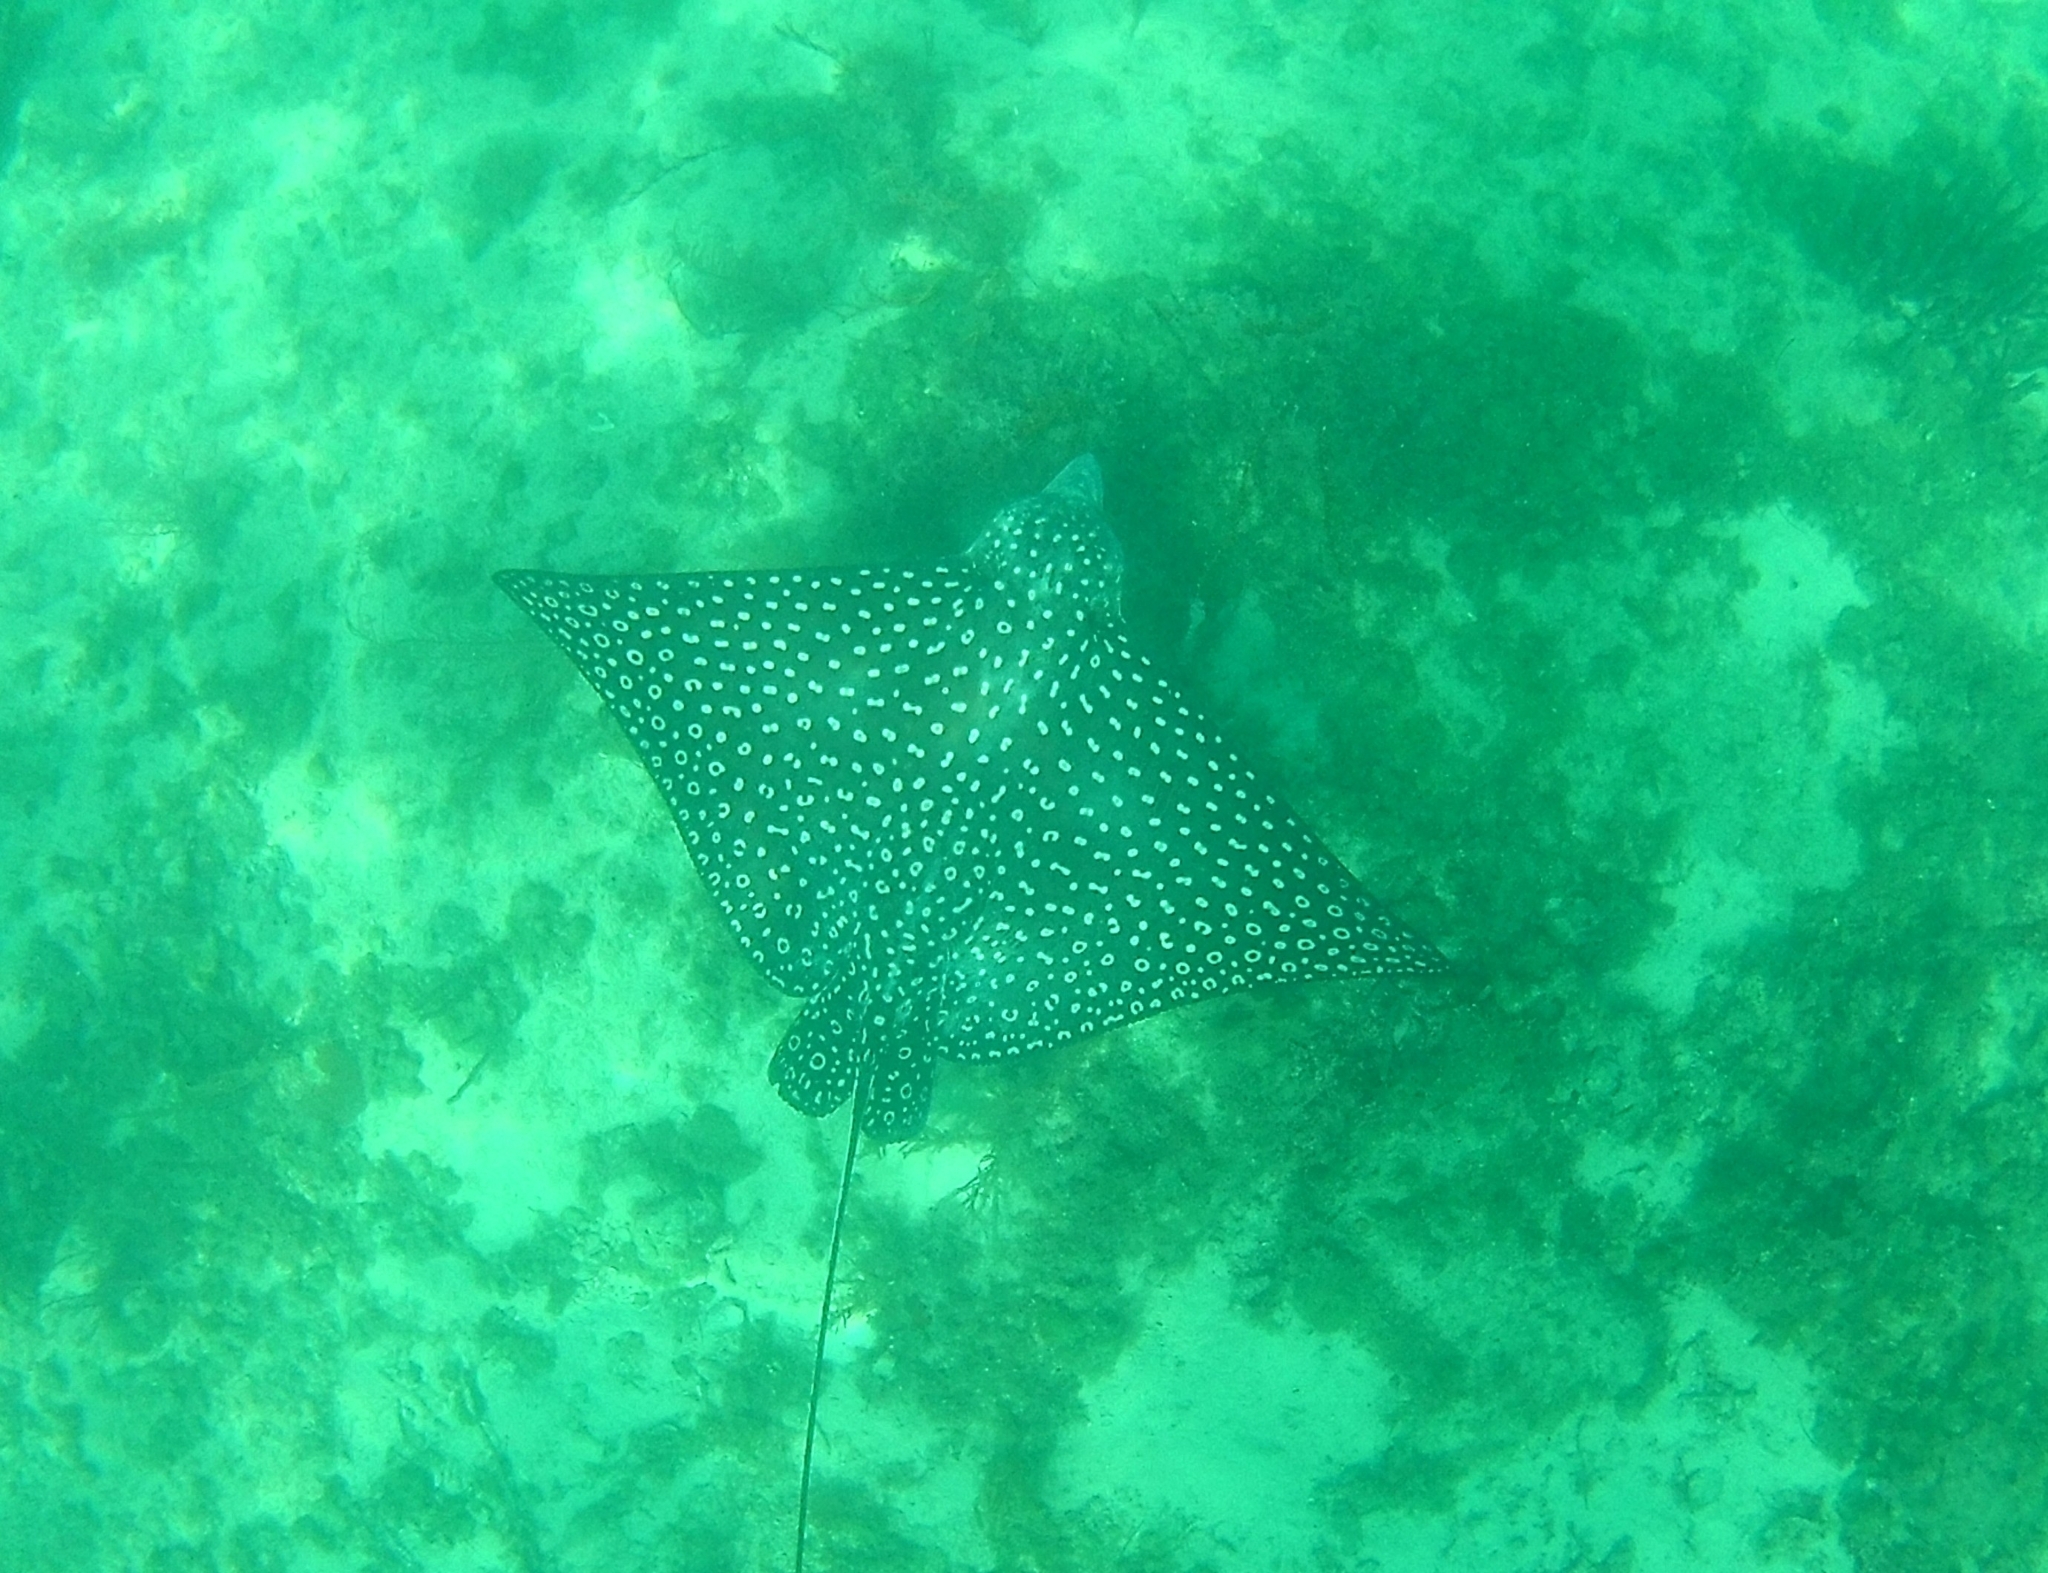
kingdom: Animalia
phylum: Chordata
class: Elasmobranchii
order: Myliobatiformes
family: Myliobatidae
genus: Aetobatus
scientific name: Aetobatus narinari
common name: Spotted eagle ray
